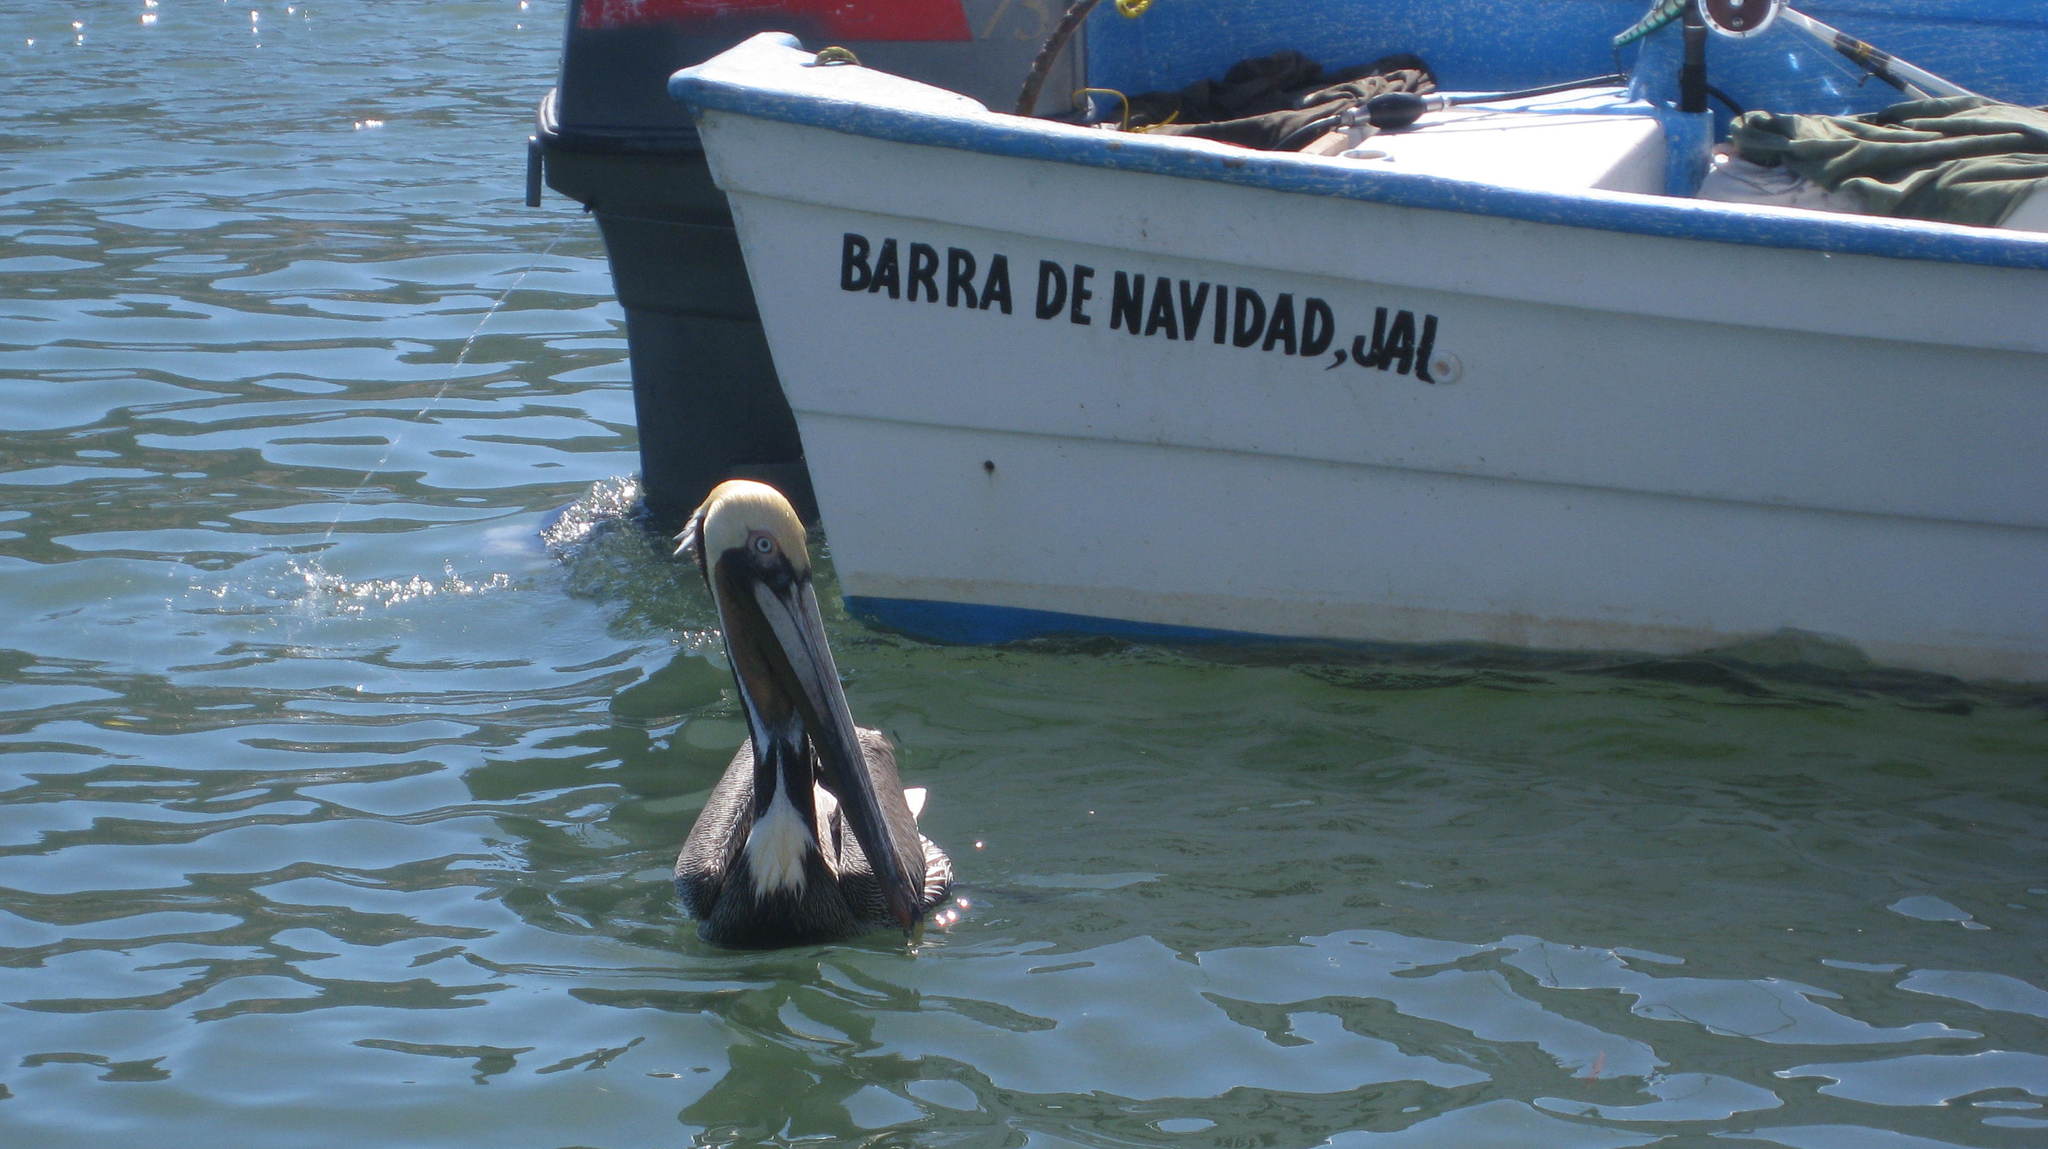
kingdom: Animalia
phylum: Chordata
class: Aves
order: Pelecaniformes
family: Pelecanidae
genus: Pelecanus
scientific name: Pelecanus occidentalis
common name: Brown pelican
